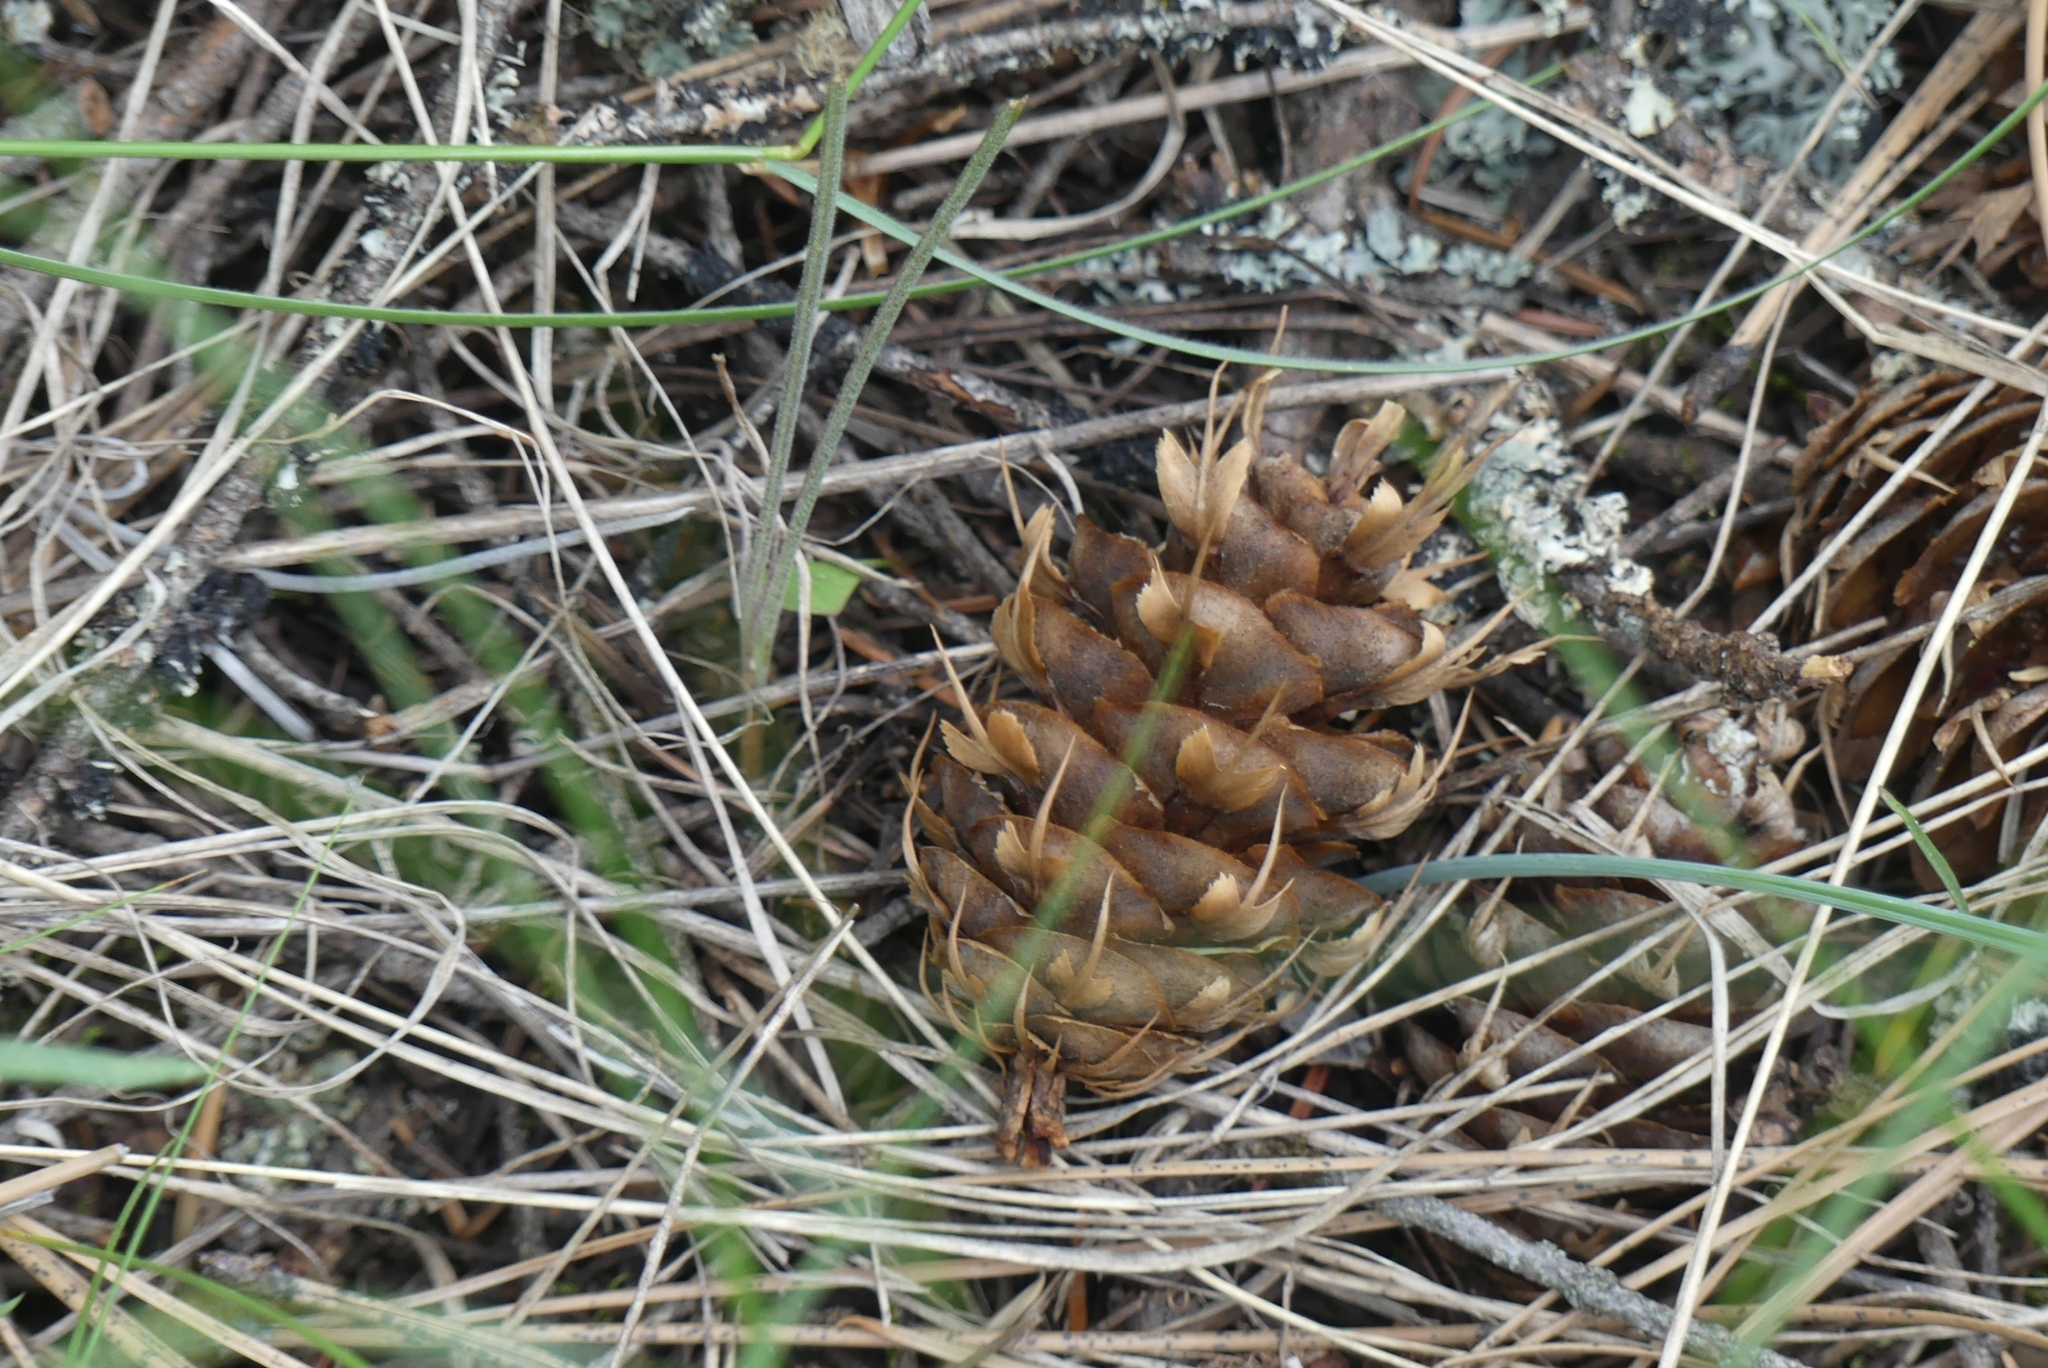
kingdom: Plantae
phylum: Tracheophyta
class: Pinopsida
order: Pinales
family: Pinaceae
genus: Pseudotsuga
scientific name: Pseudotsuga menziesii
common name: Douglas fir
